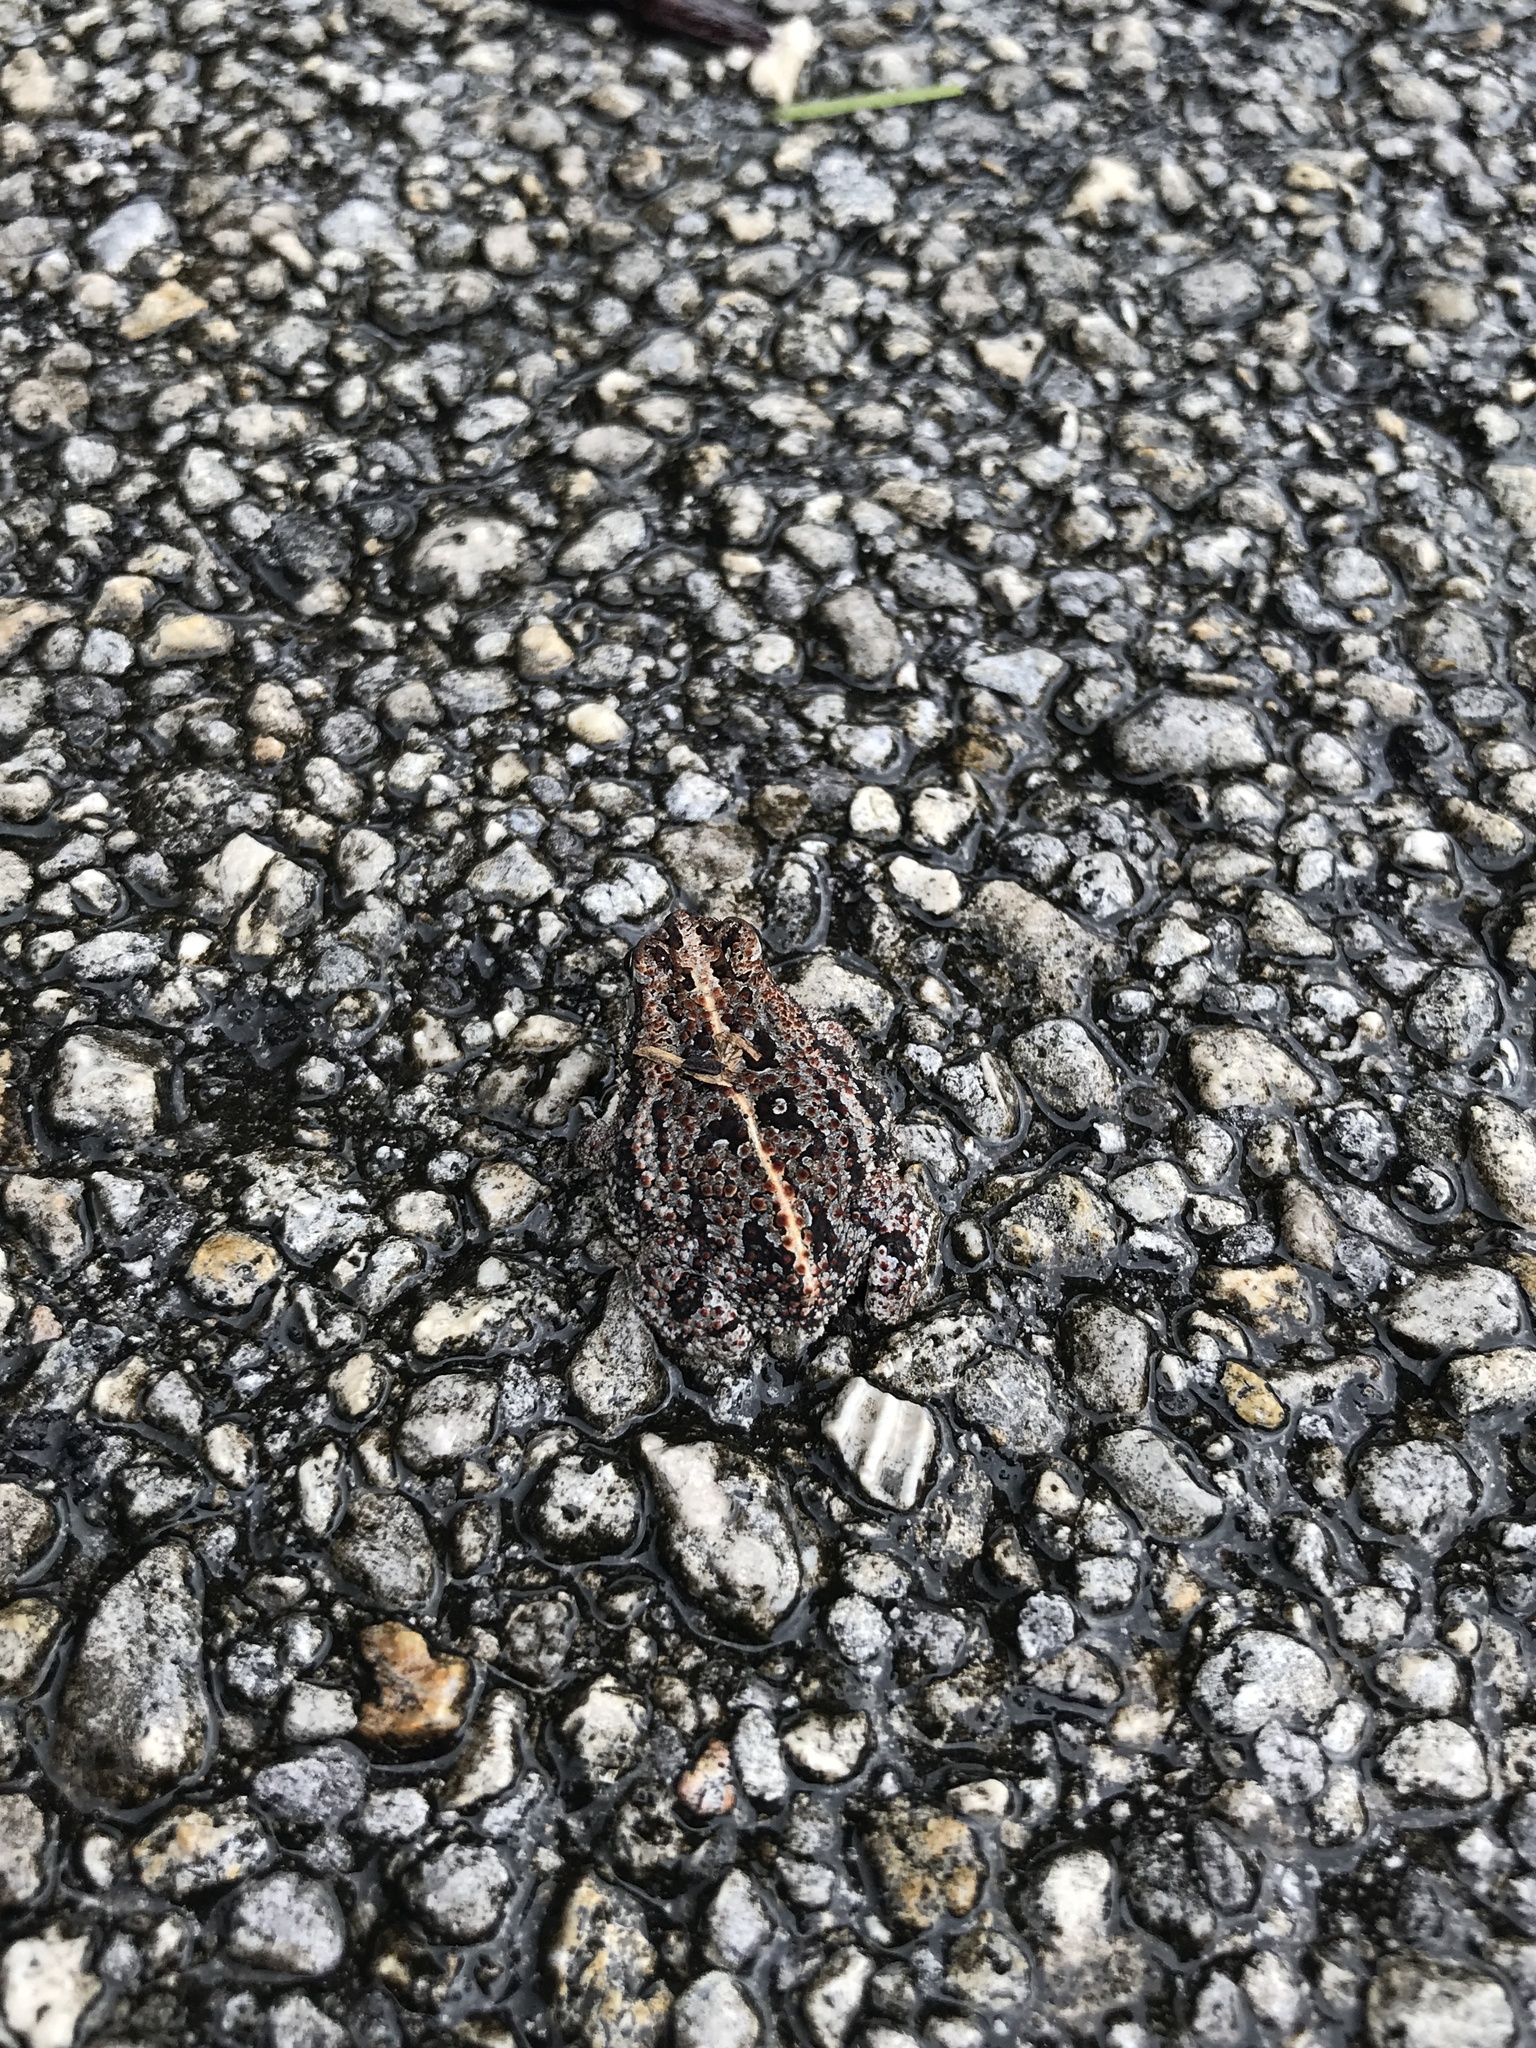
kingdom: Animalia
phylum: Chordata
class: Amphibia
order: Anura
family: Bufonidae
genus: Anaxyrus
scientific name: Anaxyrus quercicus
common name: Oak toad
